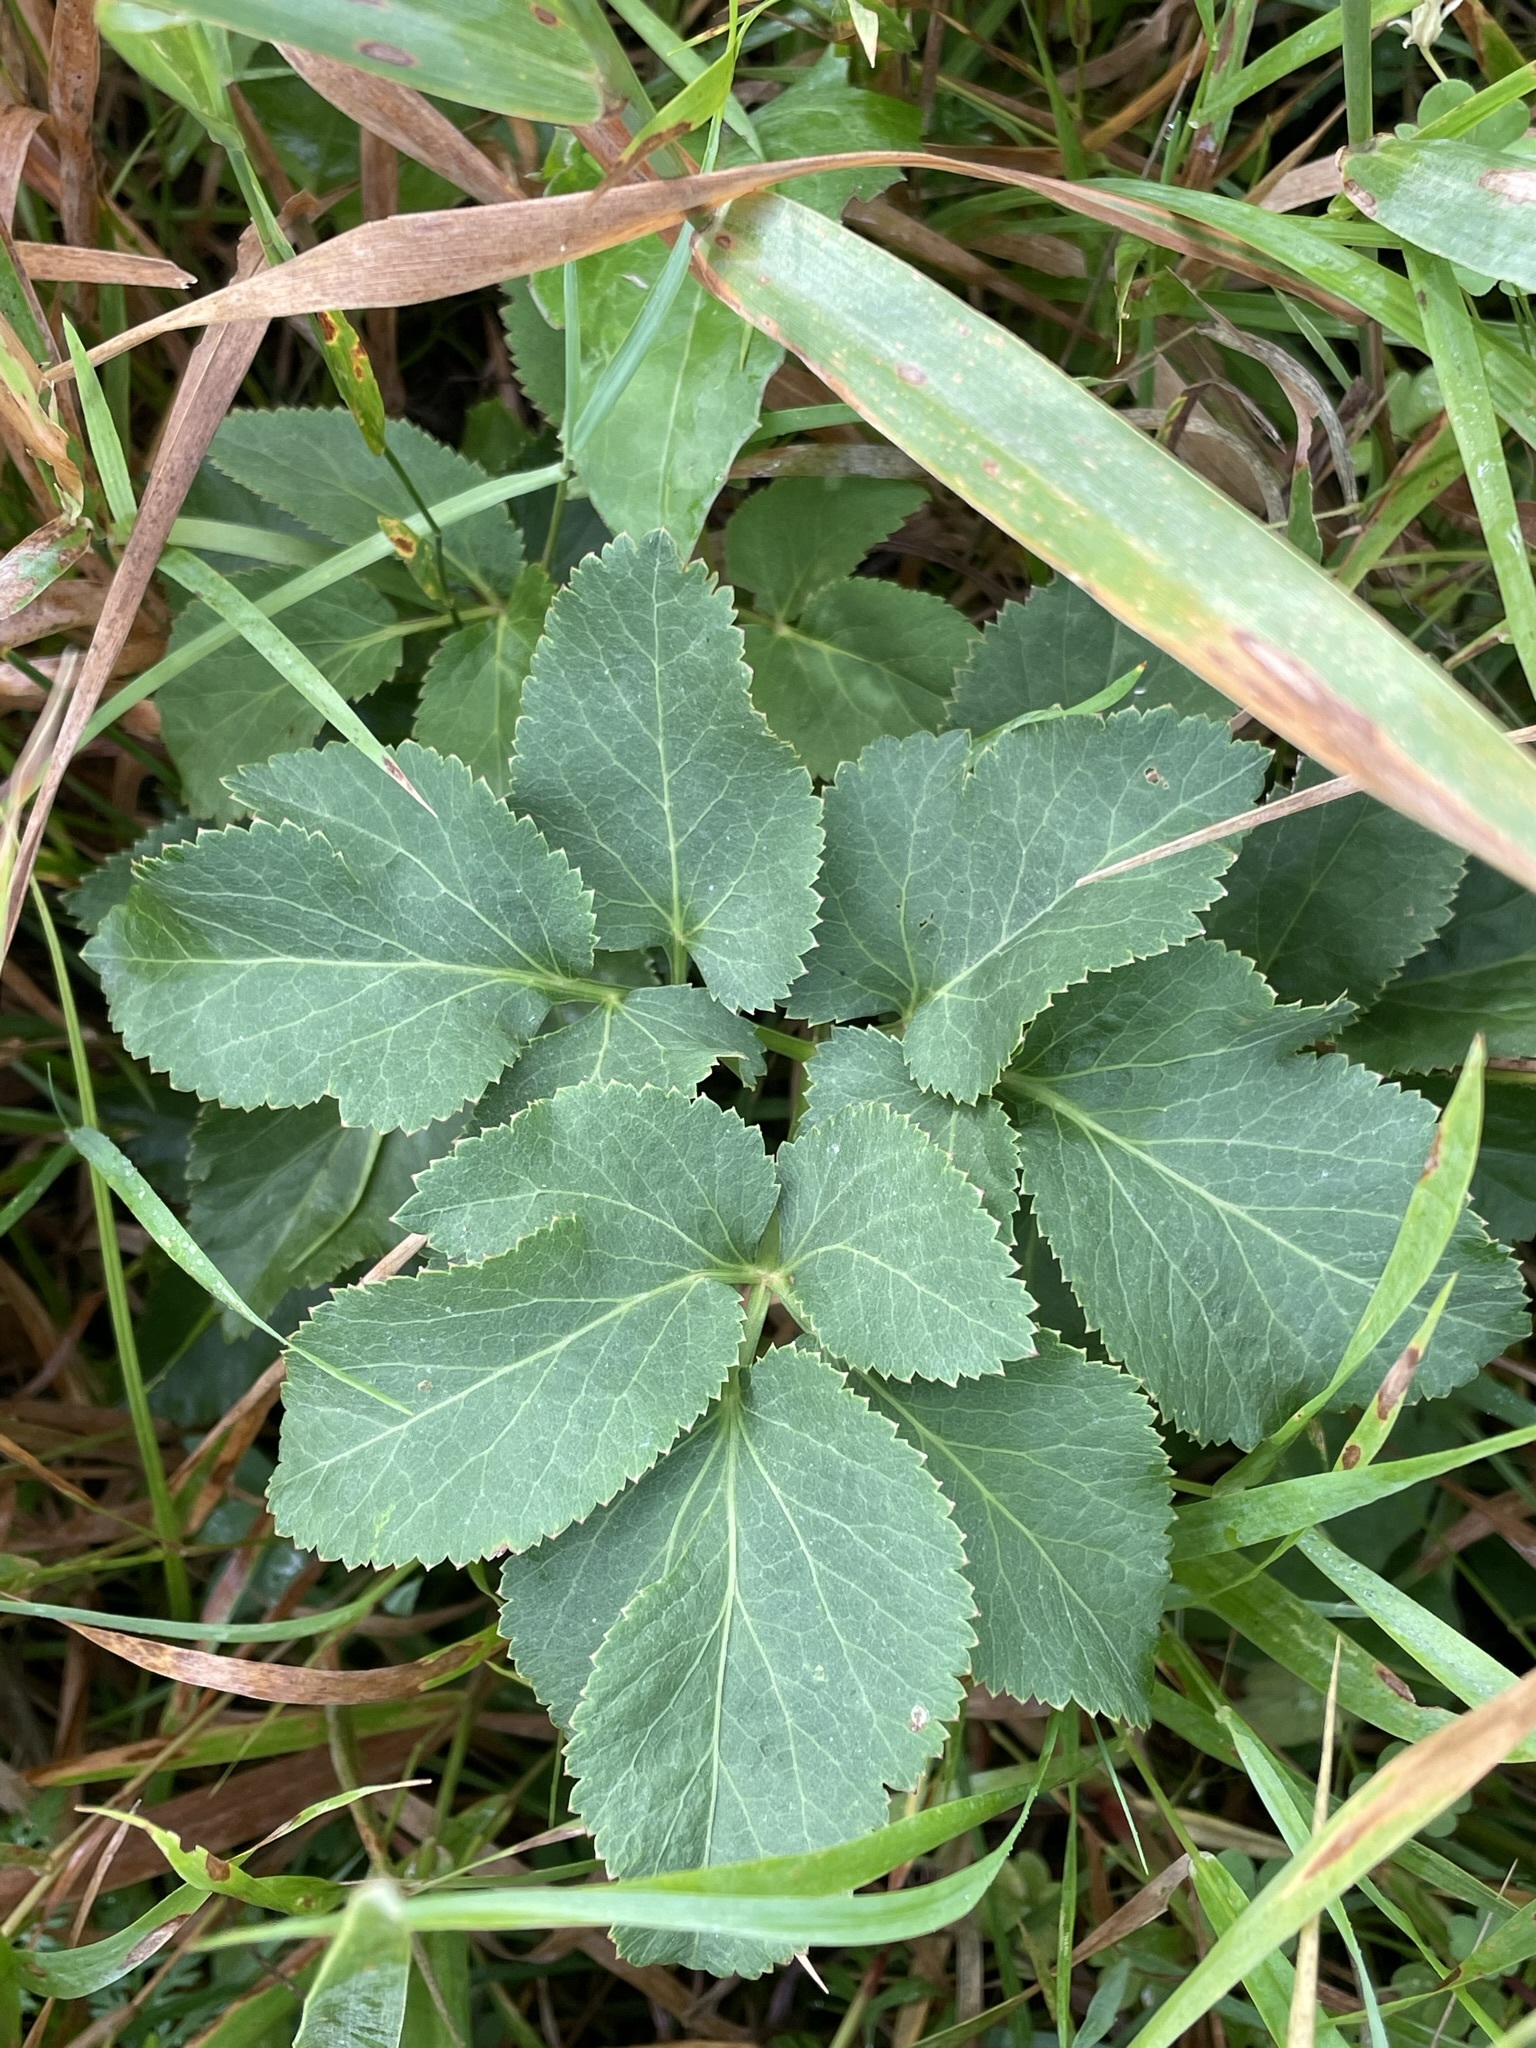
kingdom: Plantae
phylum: Tracheophyta
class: Magnoliopsida
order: Apiales
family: Apiaceae
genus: Zizia
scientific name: Zizia aurea
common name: Golden alexanders
